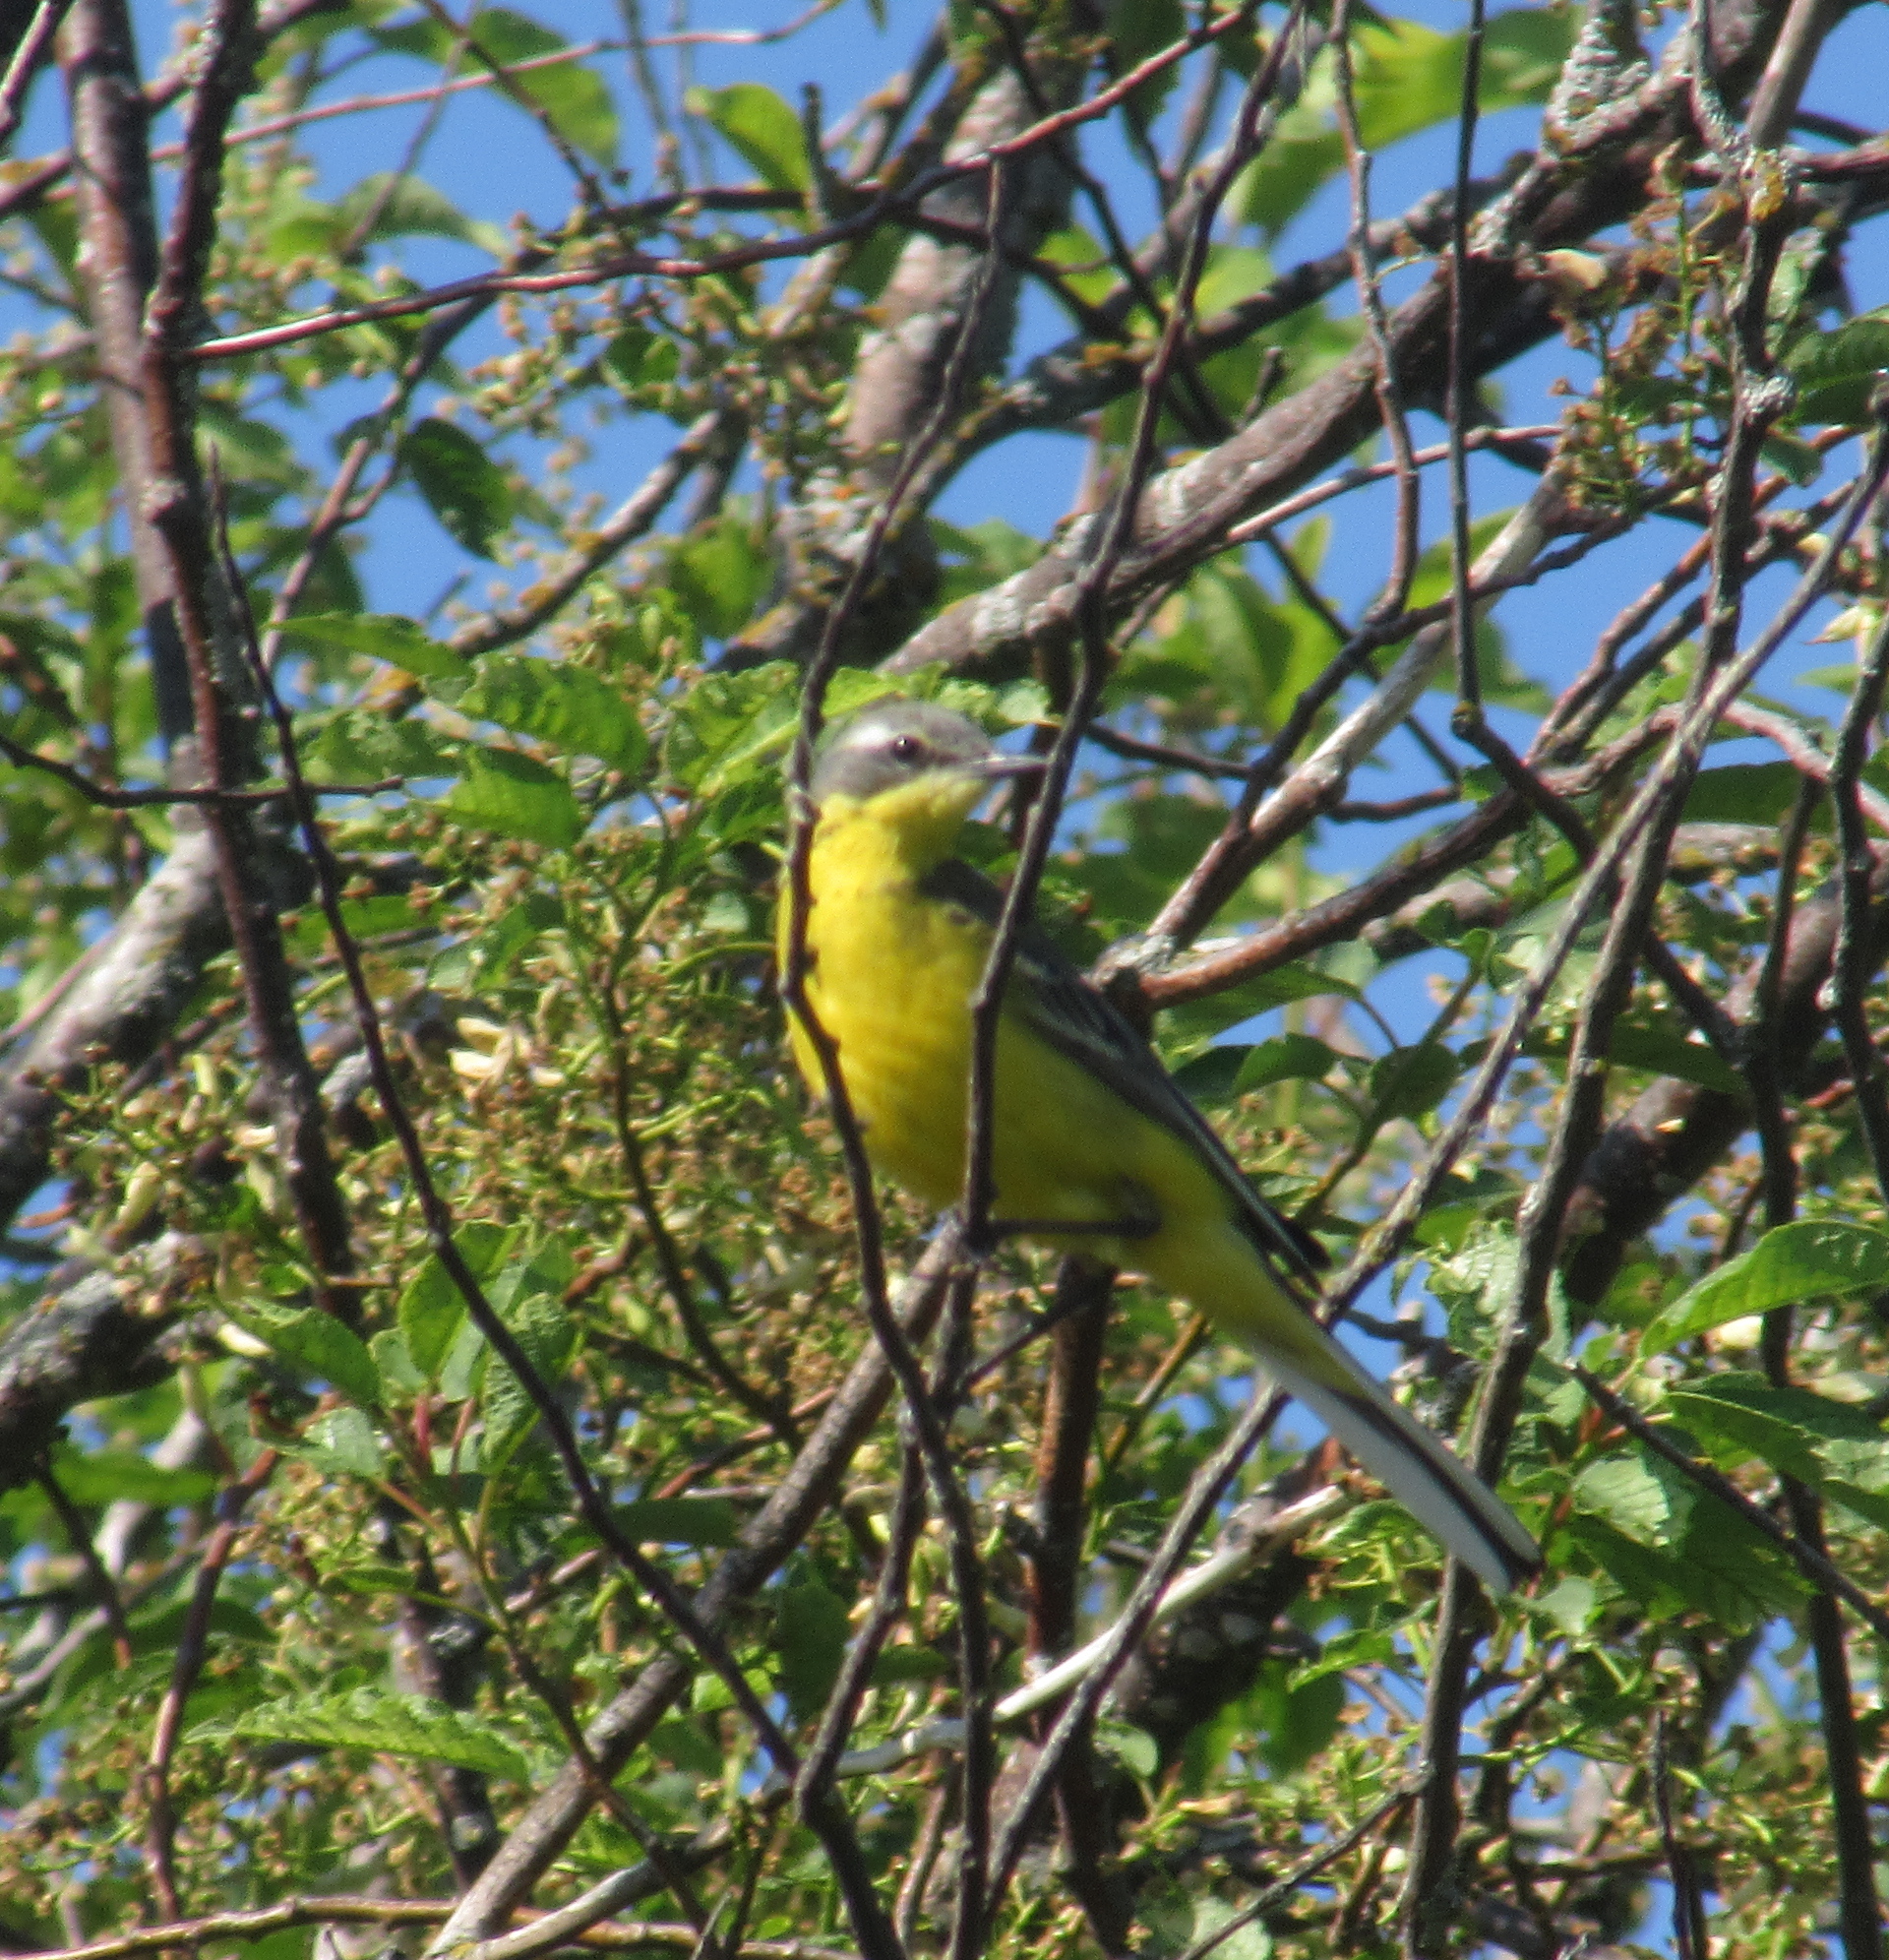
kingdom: Animalia
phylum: Chordata
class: Aves
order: Passeriformes
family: Motacillidae
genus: Motacilla
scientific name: Motacilla flava
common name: Western yellow wagtail
